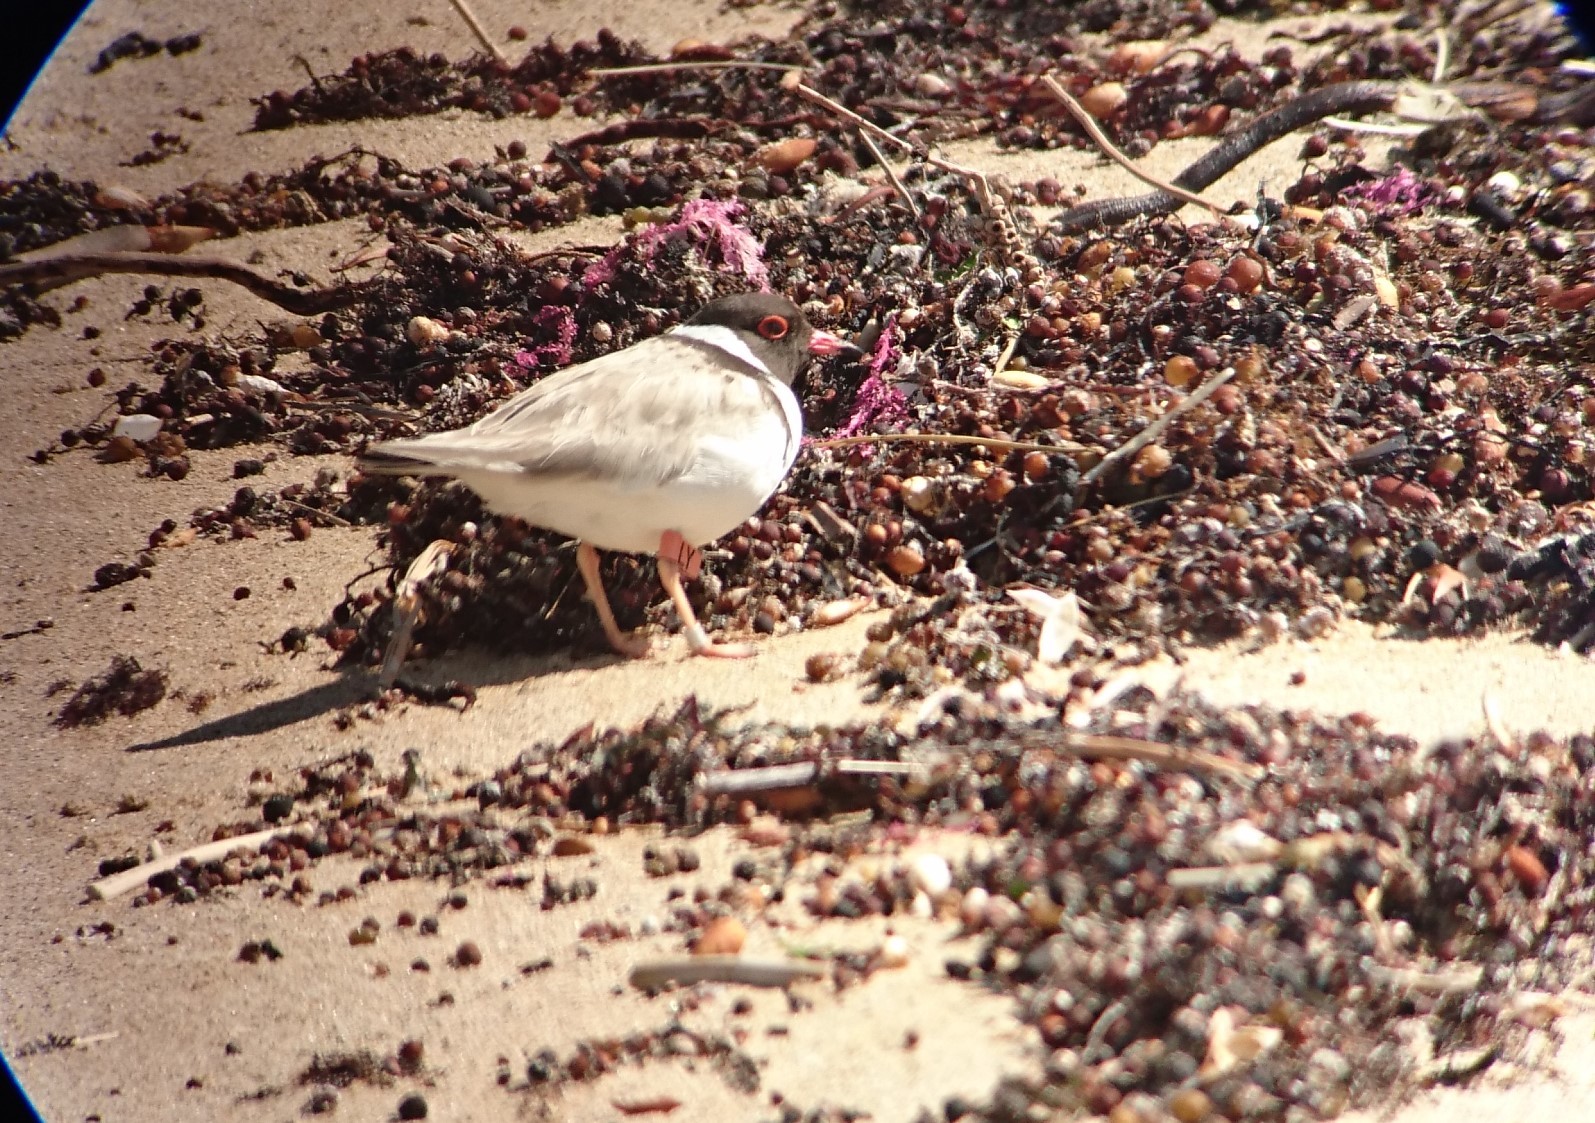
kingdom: Animalia
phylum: Chordata
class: Aves
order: Charadriiformes
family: Charadriidae
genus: Thinornis
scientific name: Thinornis cucullatus
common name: Hooded dotterel
